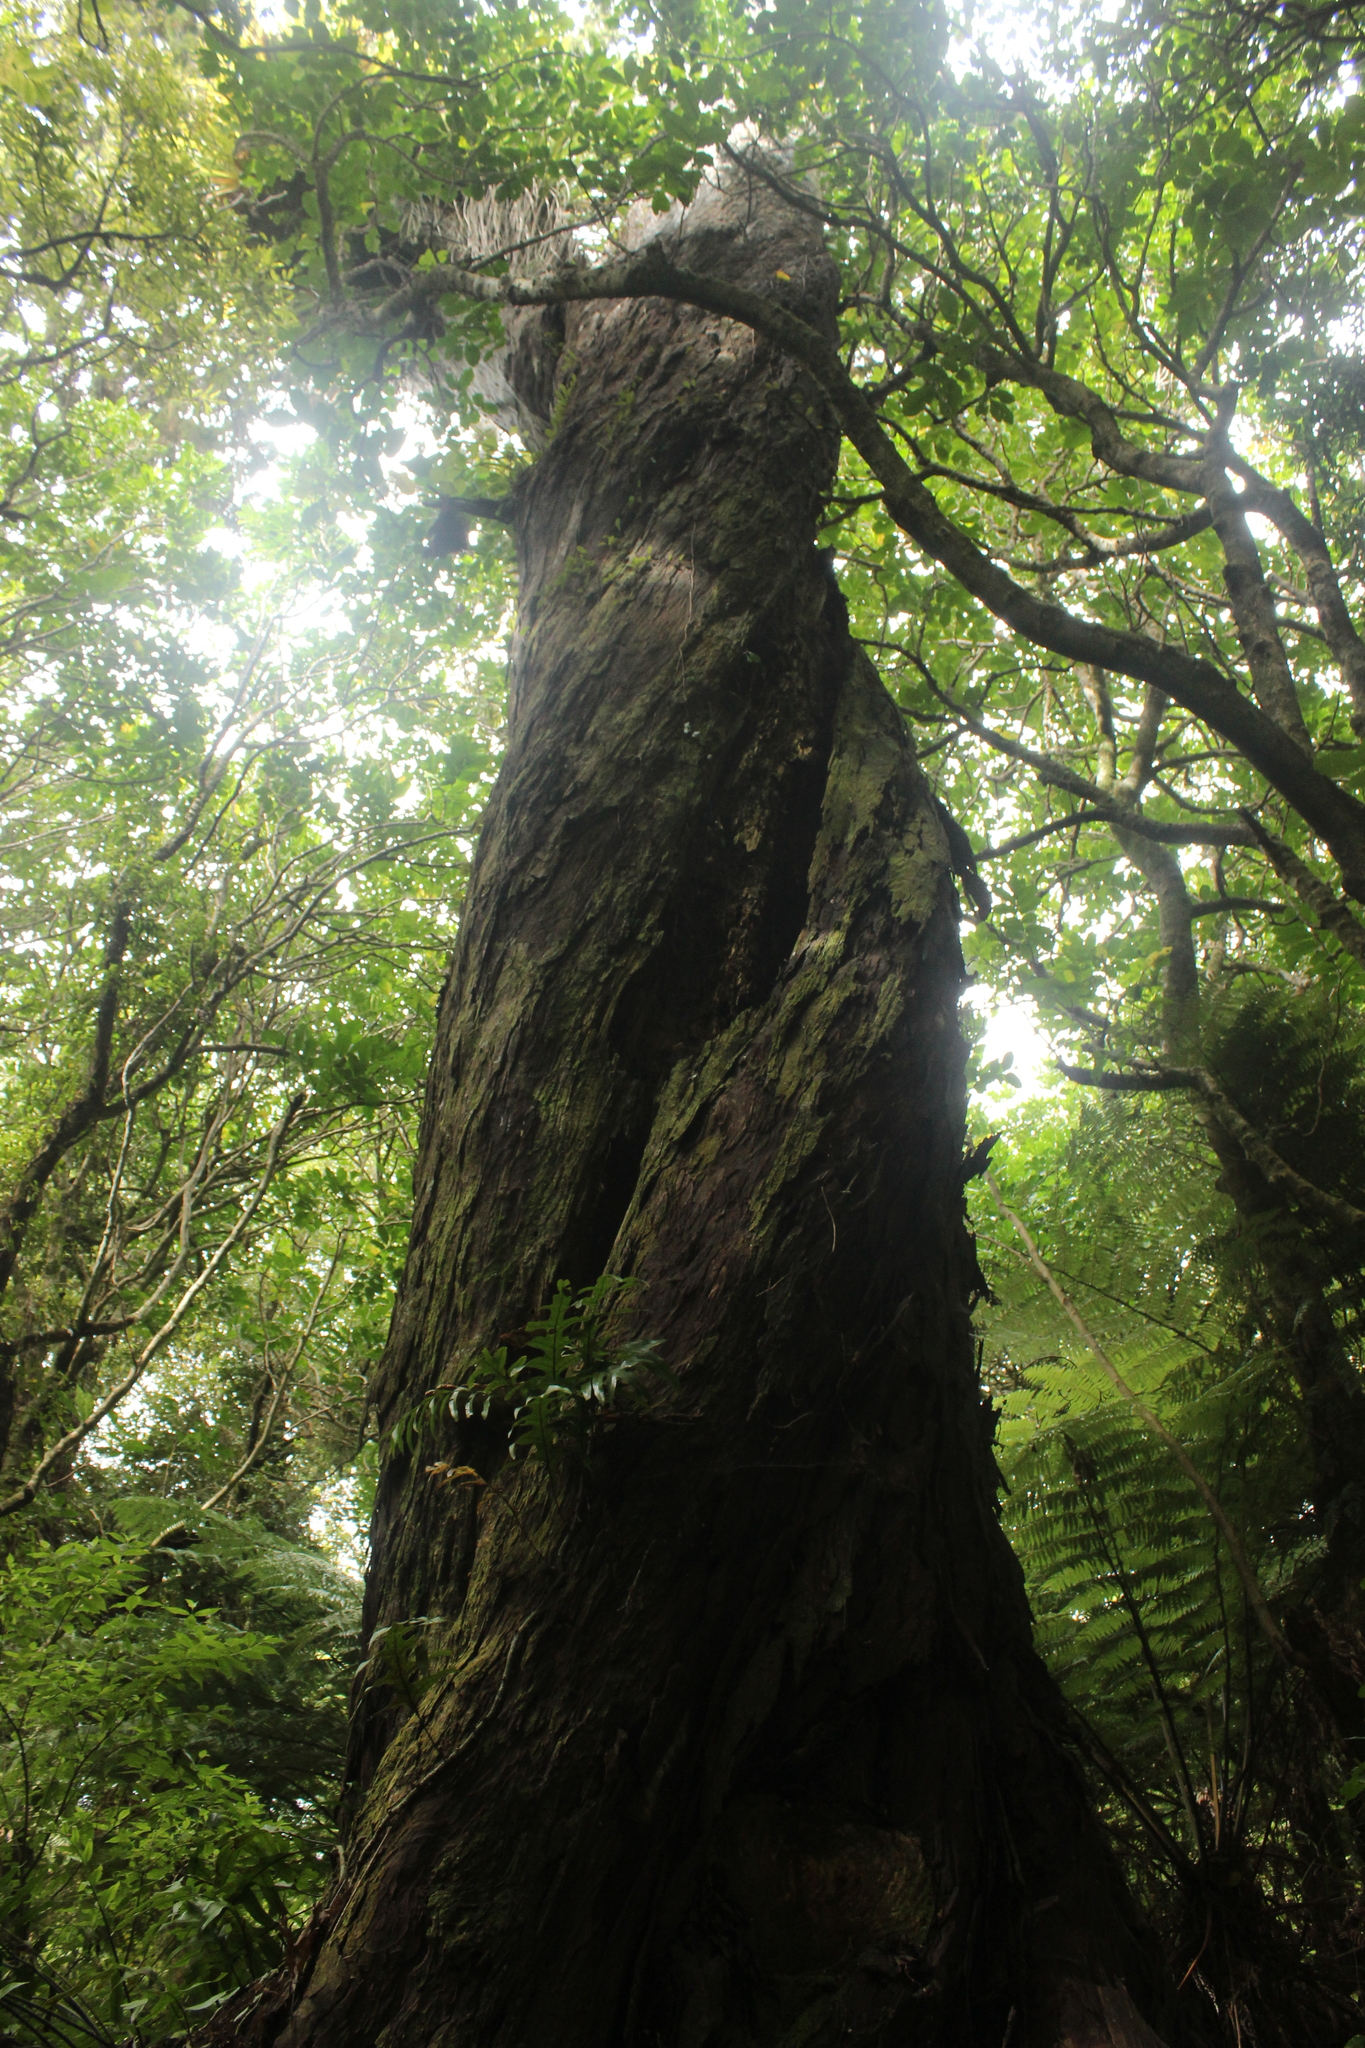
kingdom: Plantae
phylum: Tracheophyta
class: Pinopsida
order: Pinales
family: Podocarpaceae
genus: Dacrydium
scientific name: Dacrydium cupressinum
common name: Red pine
